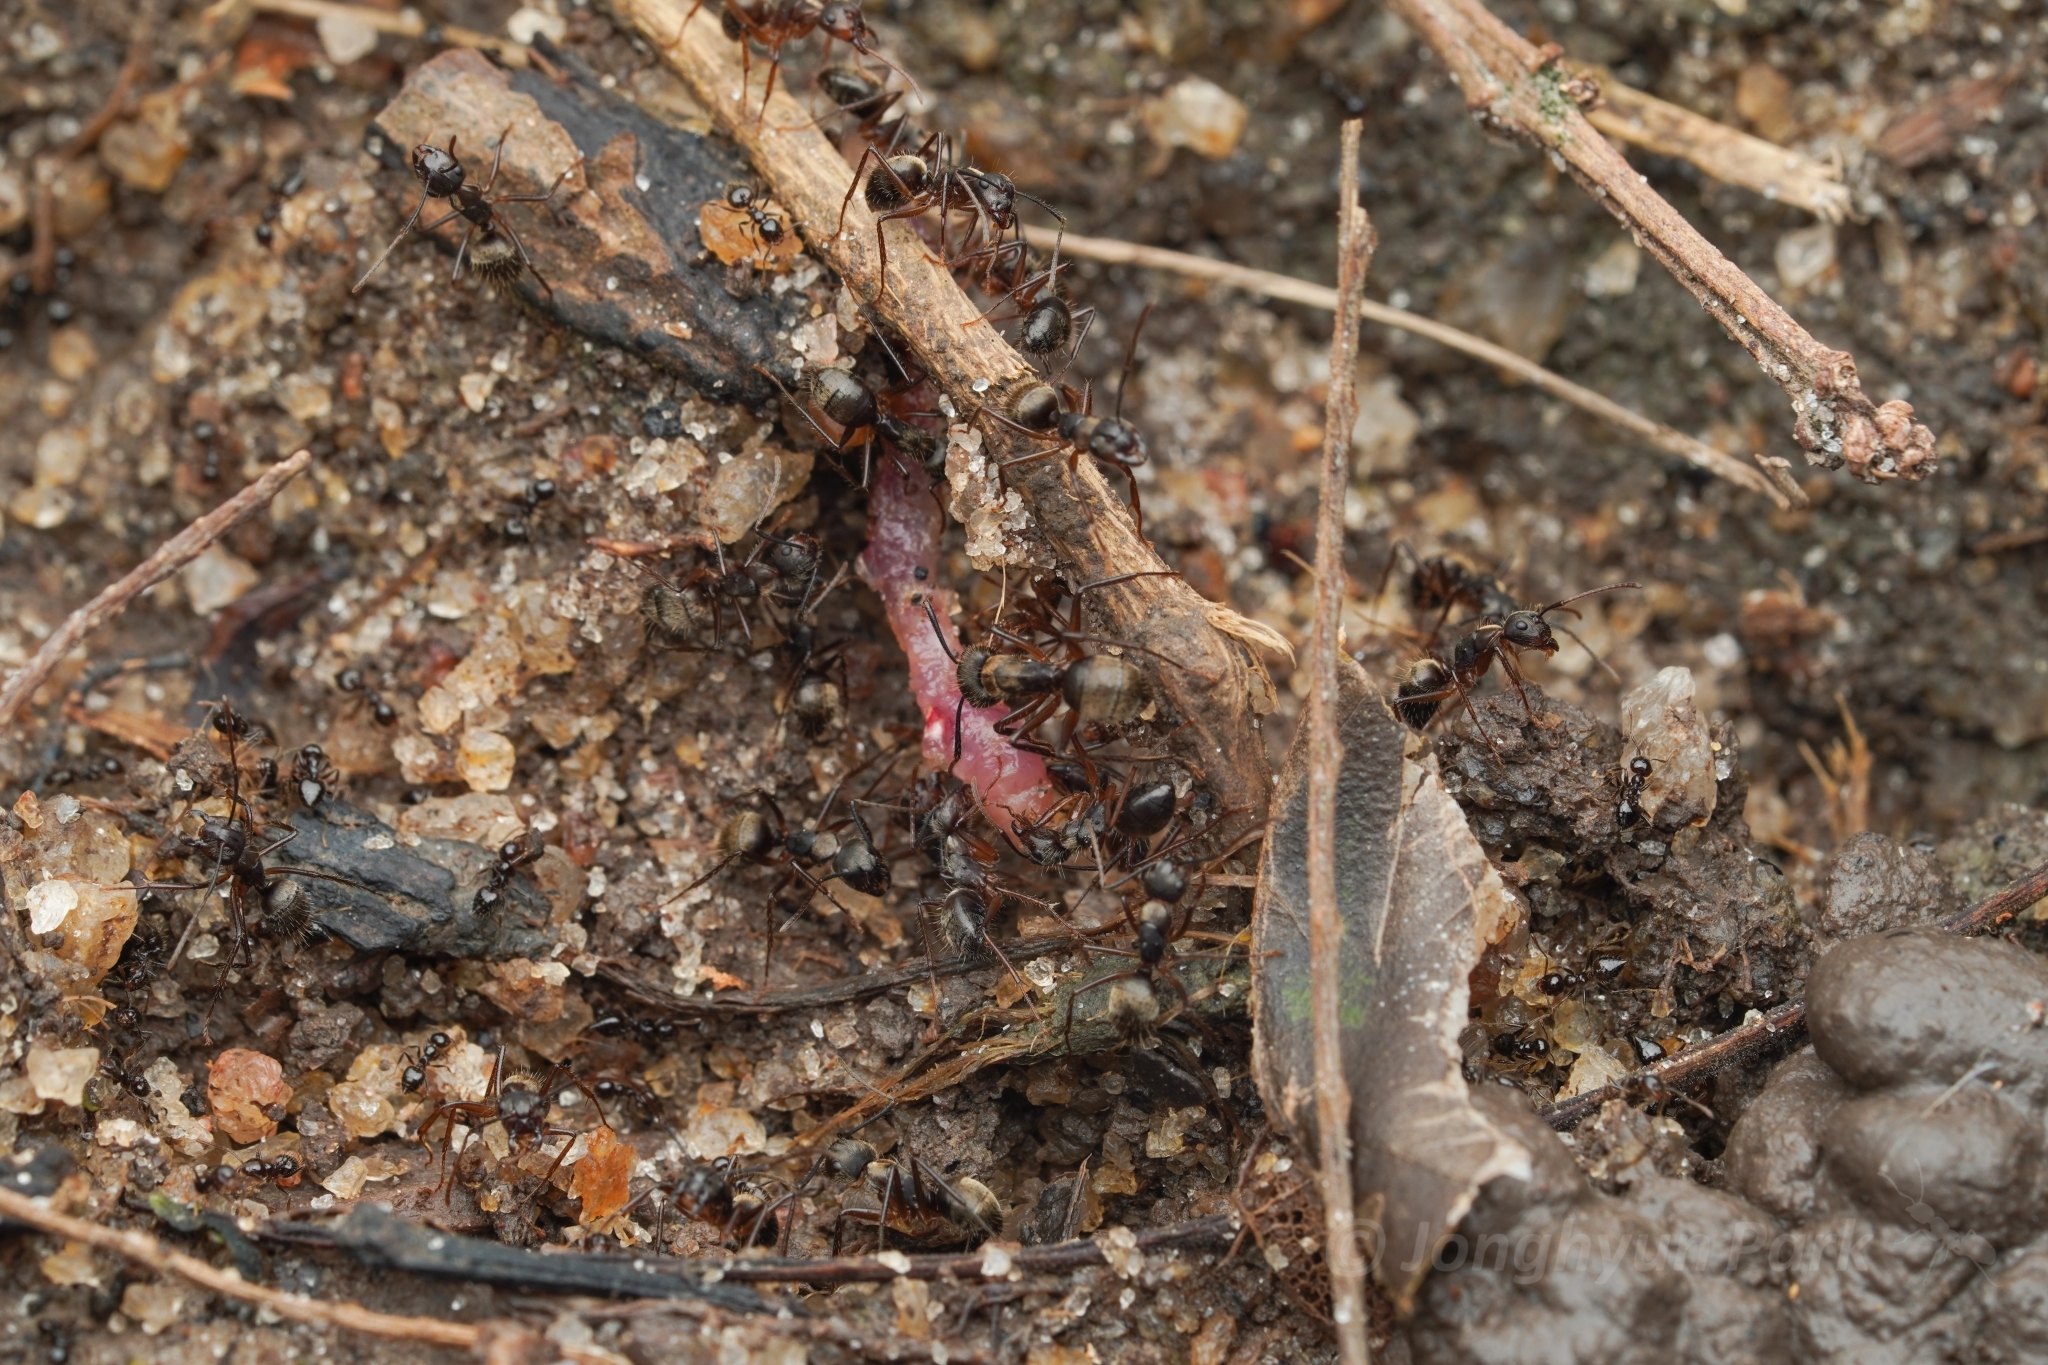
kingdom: Animalia
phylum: Arthropoda
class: Insecta
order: Hymenoptera
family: Formicidae
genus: Camponotus
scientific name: Camponotus femoratus
